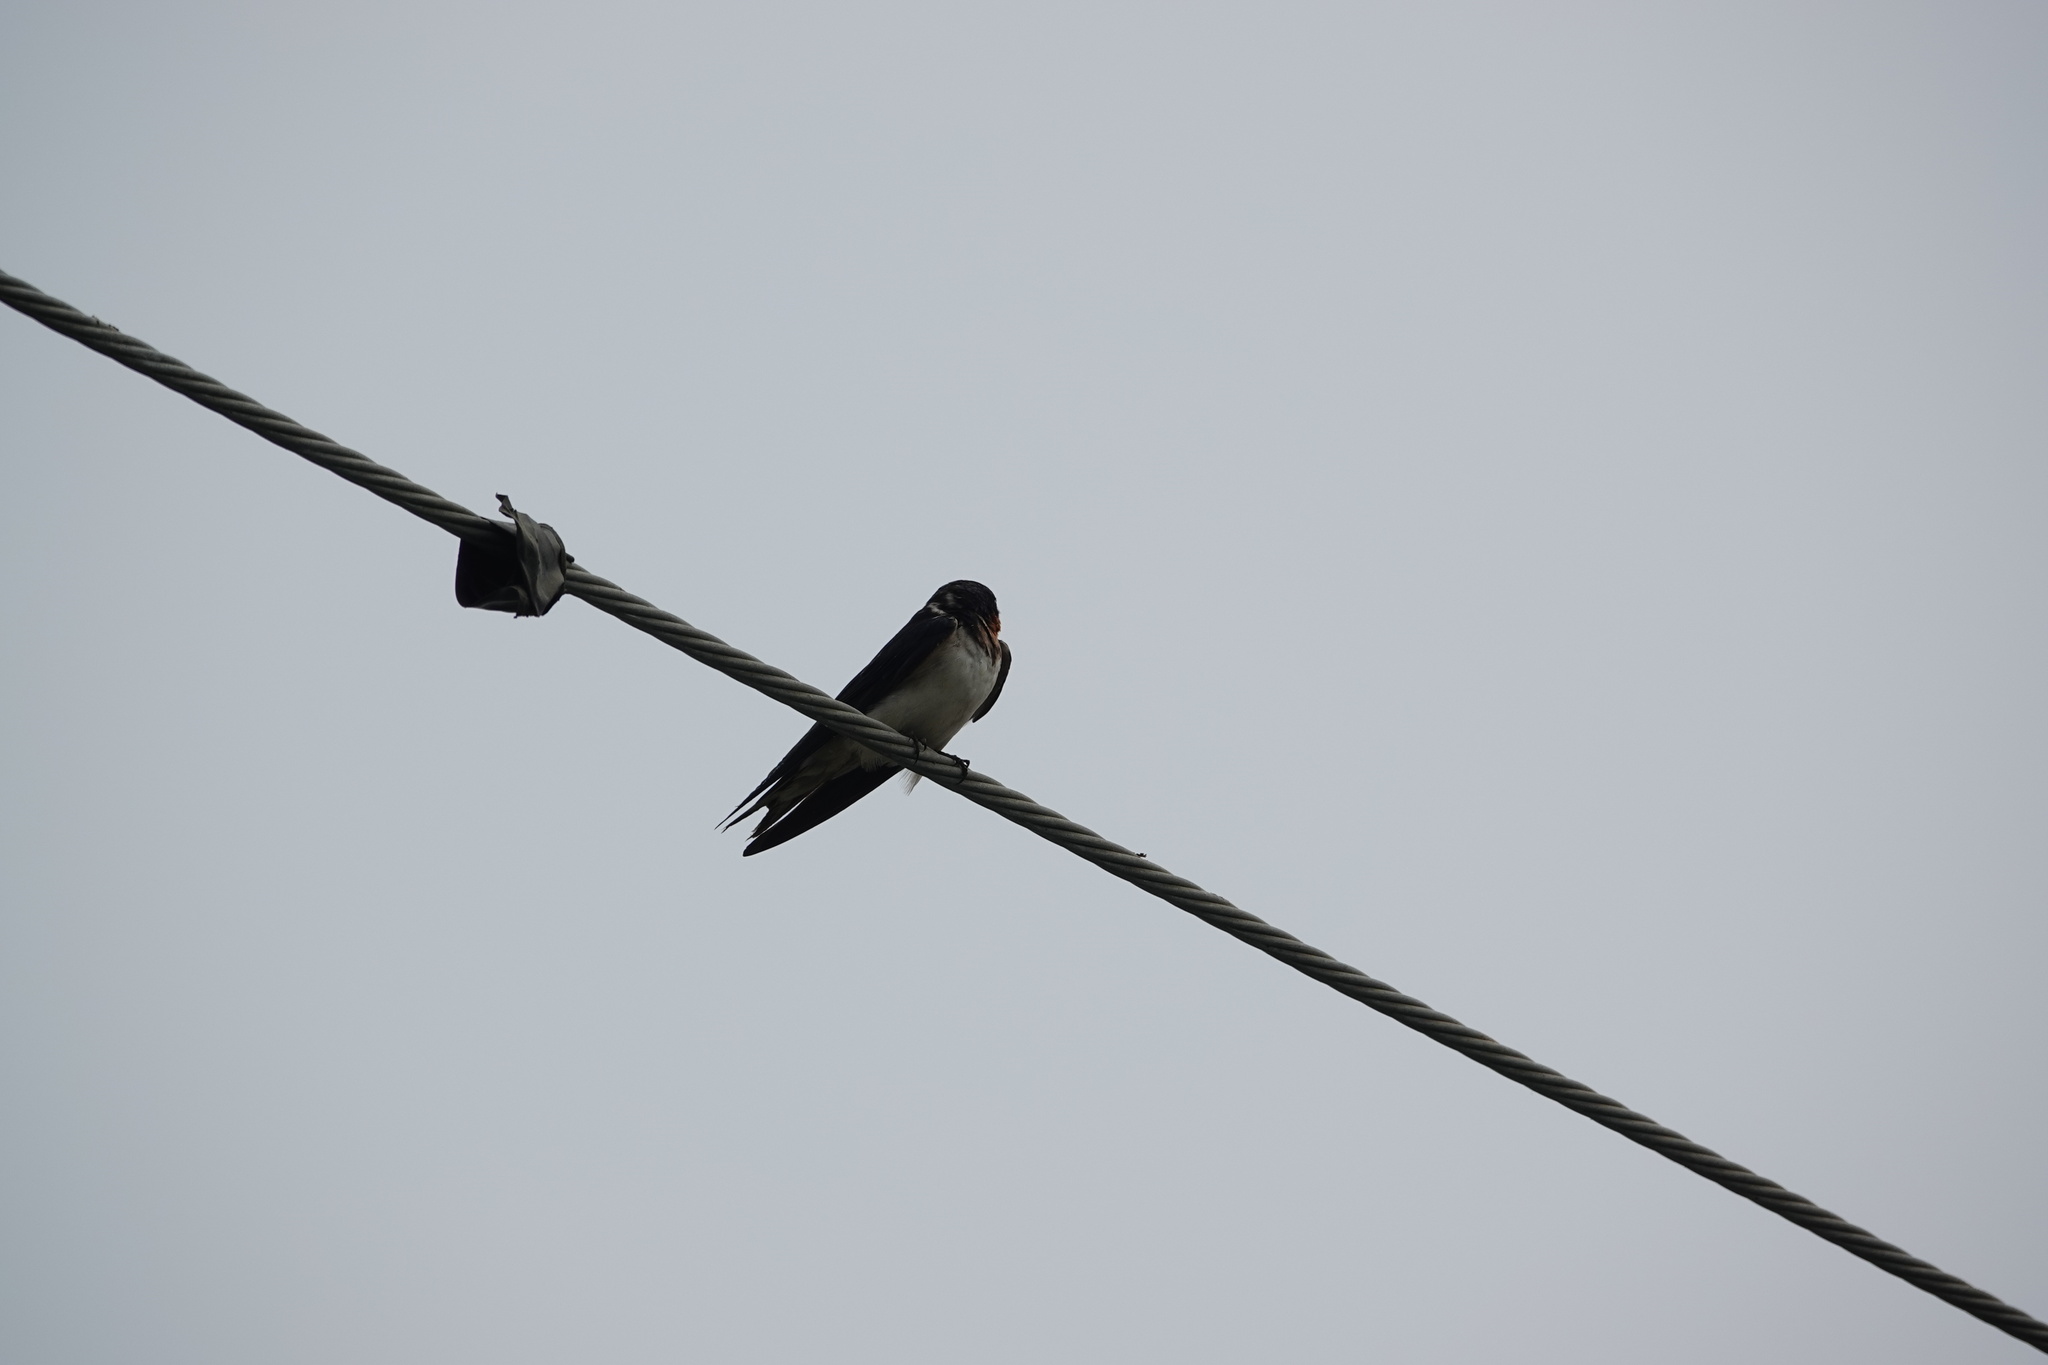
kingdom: Animalia
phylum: Chordata
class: Aves
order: Passeriformes
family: Hirundinidae
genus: Hirundo
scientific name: Hirundo rustica
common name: Barn swallow
